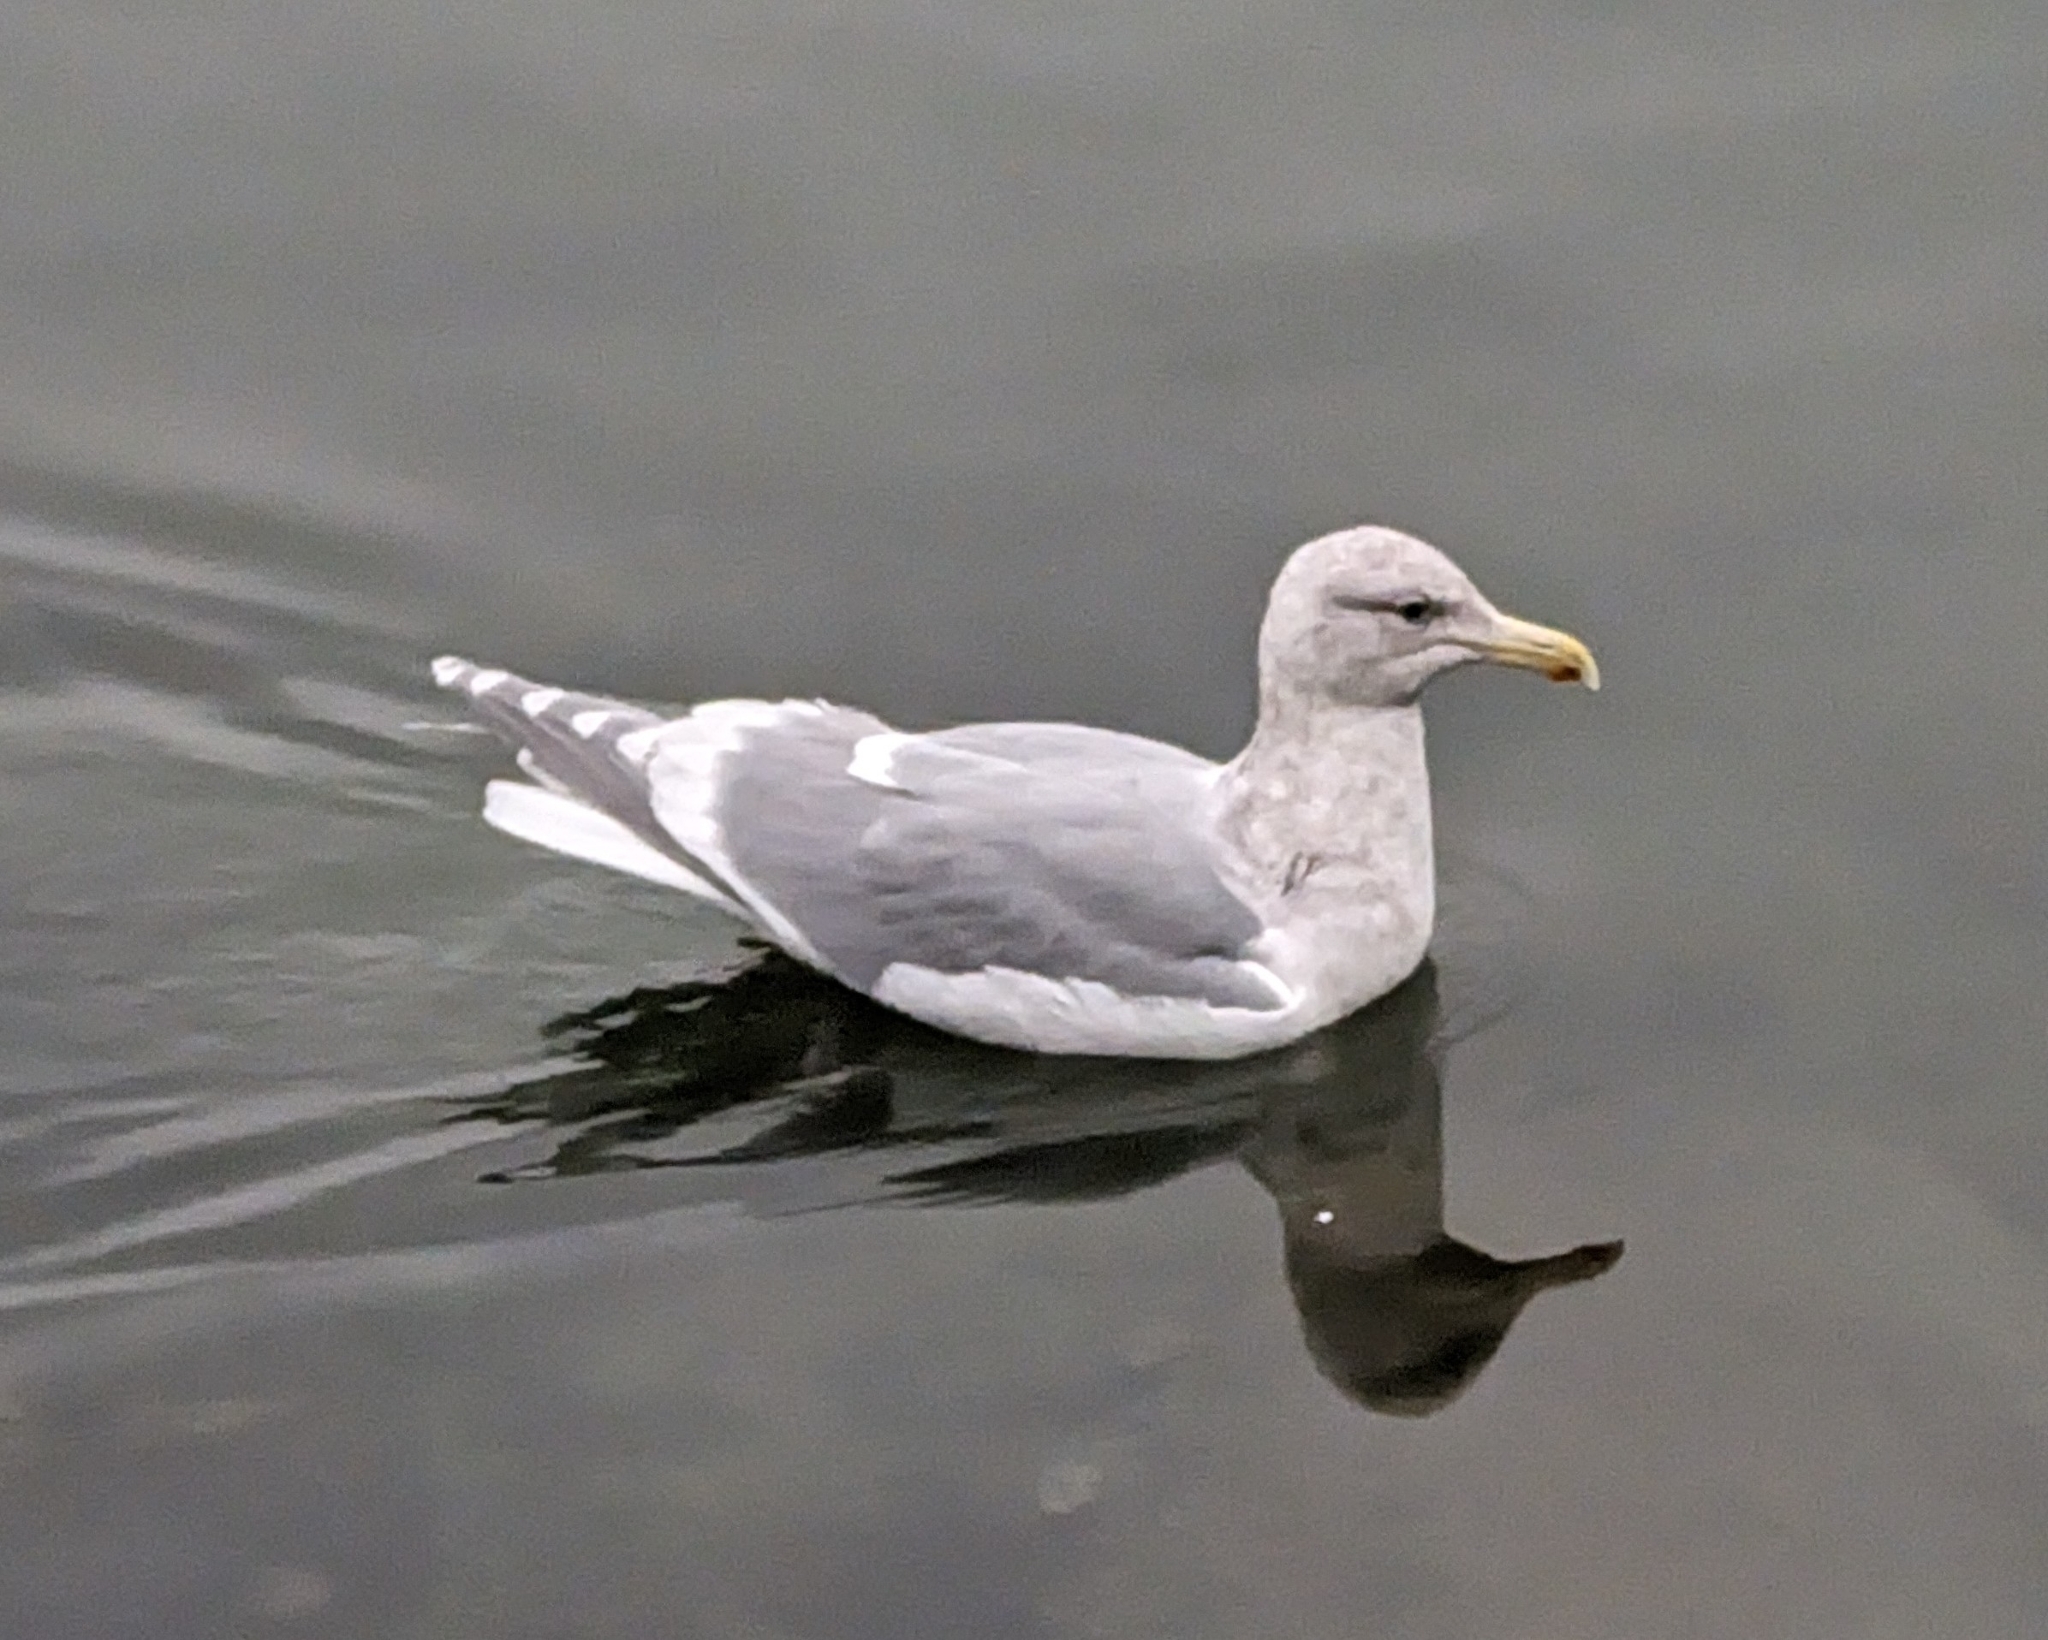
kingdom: Animalia
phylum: Chordata
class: Aves
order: Charadriiformes
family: Laridae
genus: Larus
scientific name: Larus
